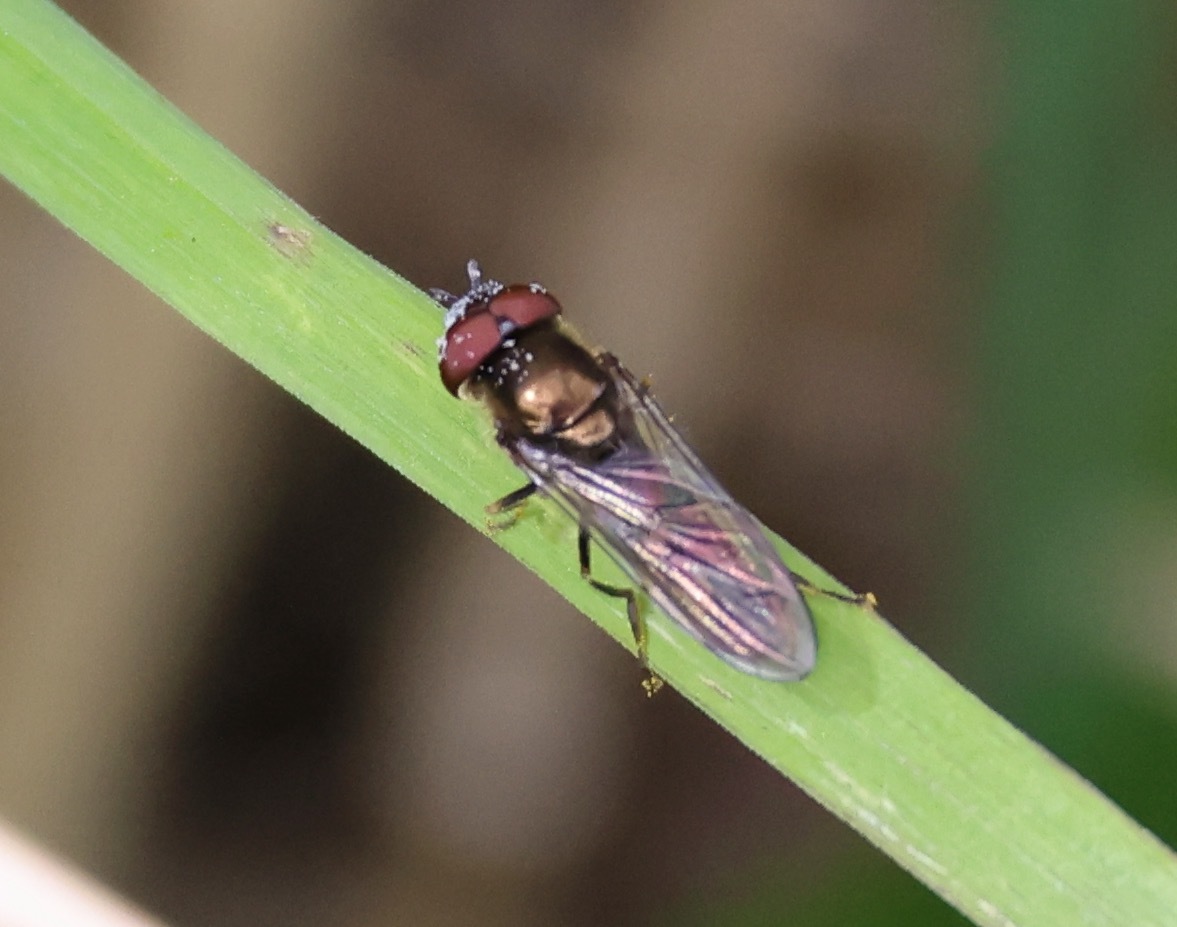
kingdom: Animalia
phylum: Arthropoda
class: Insecta
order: Diptera
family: Syrphidae
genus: Platycheirus
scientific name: Platycheirus
